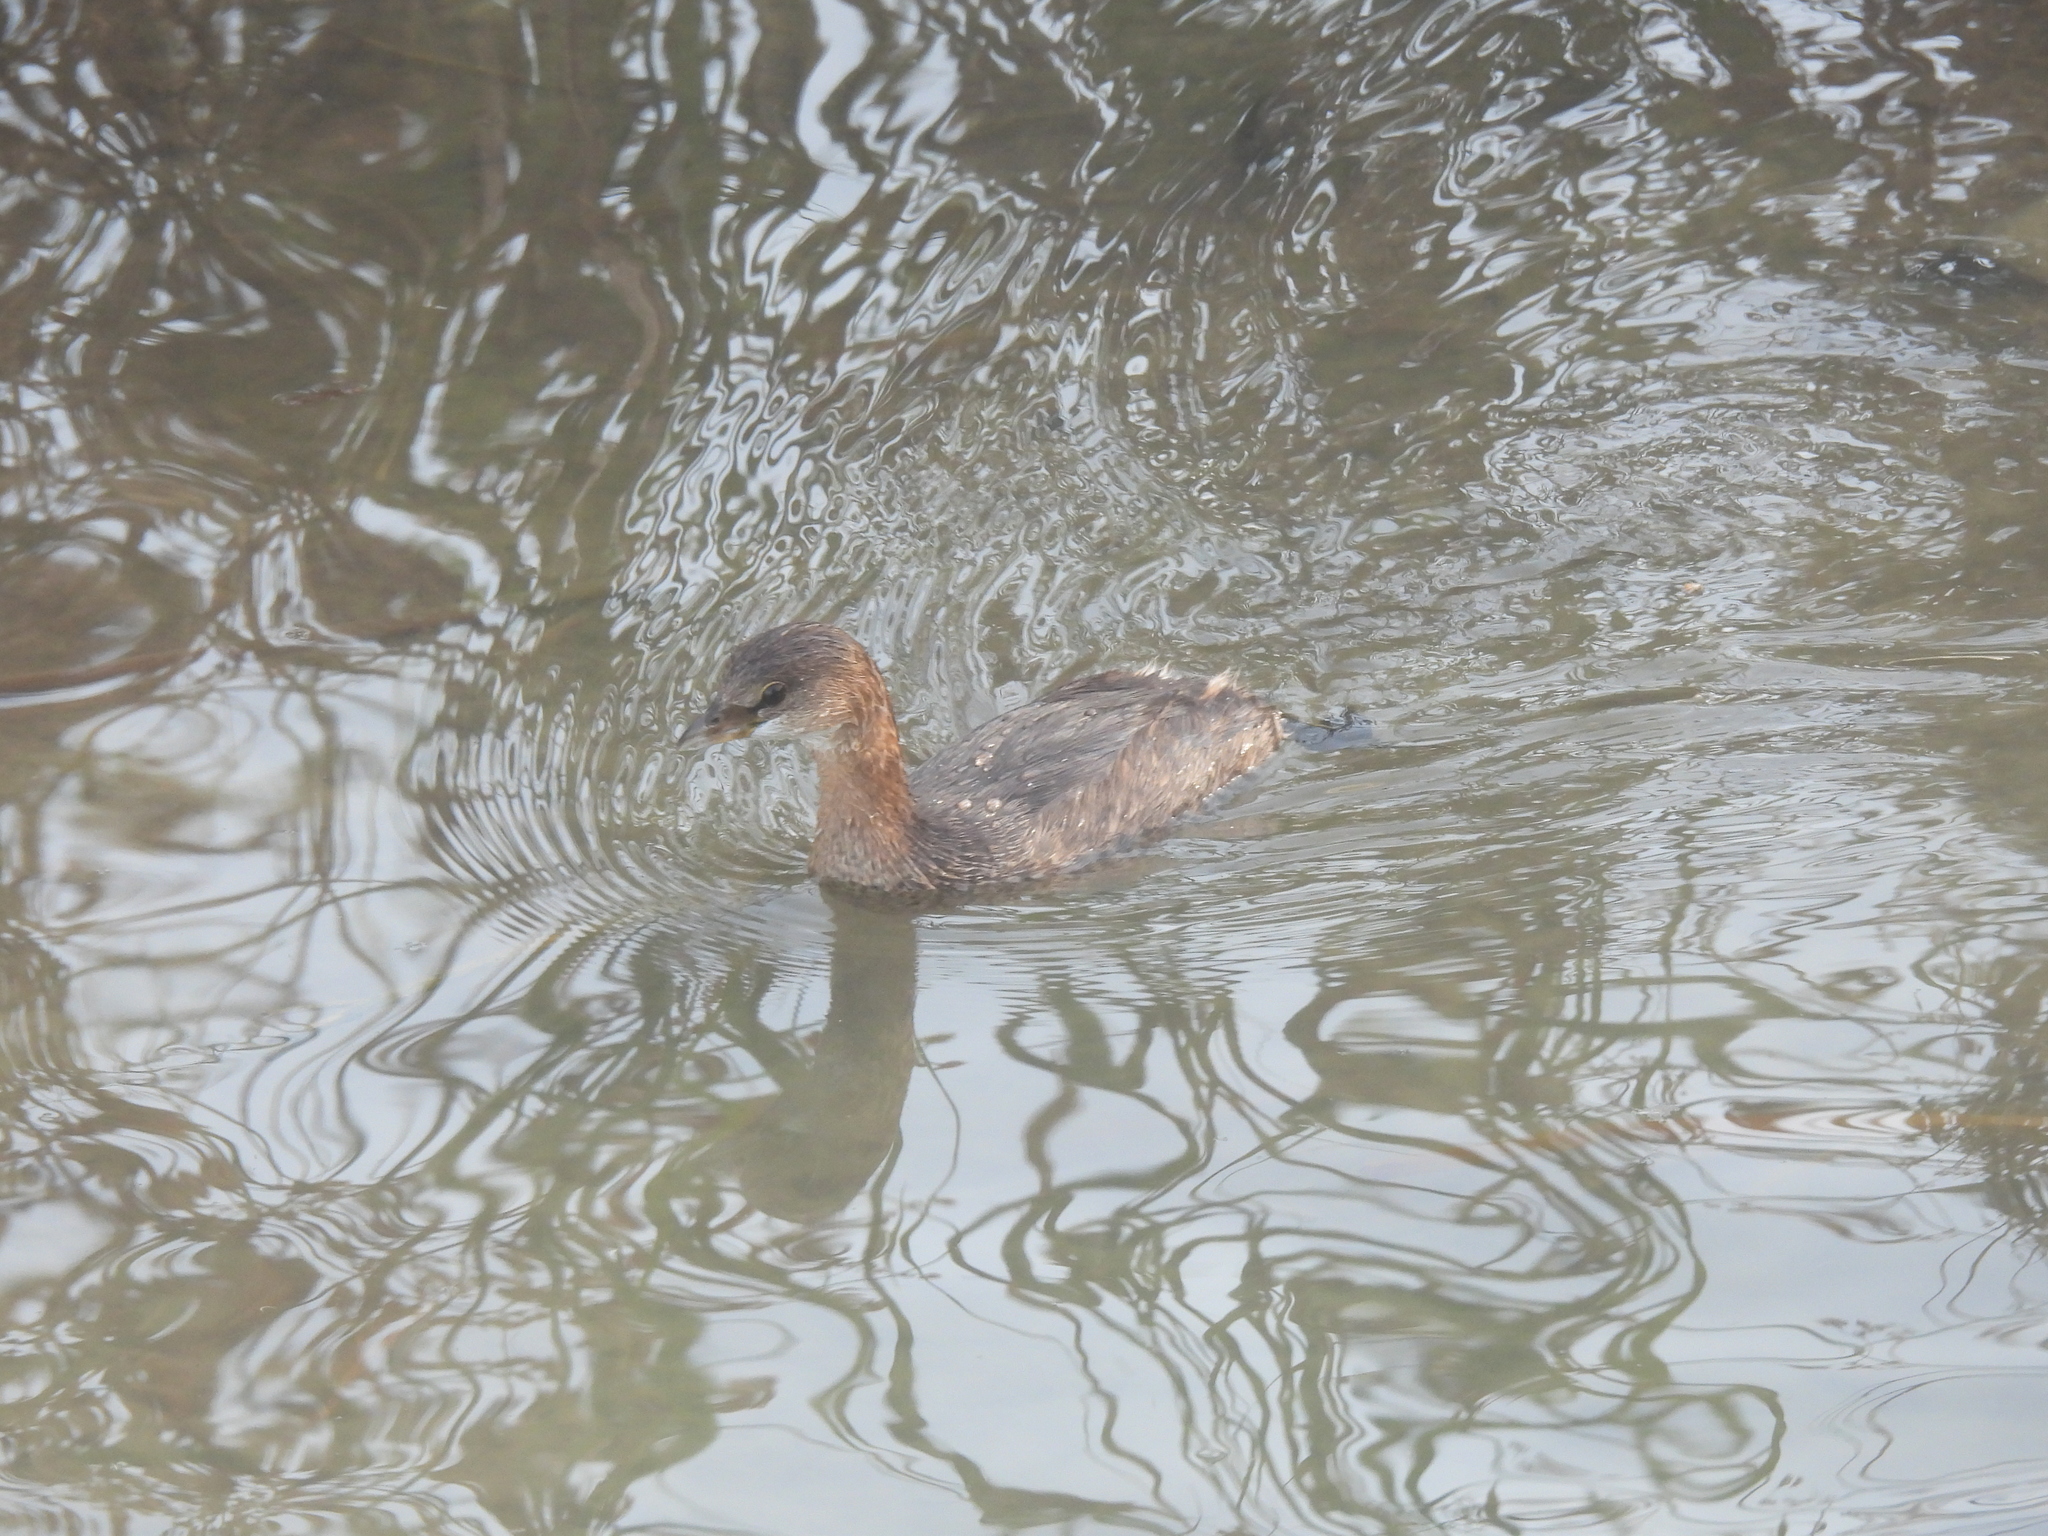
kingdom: Animalia
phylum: Chordata
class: Aves
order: Podicipediformes
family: Podicipedidae
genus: Podilymbus
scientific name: Podilymbus podiceps
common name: Pied-billed grebe
